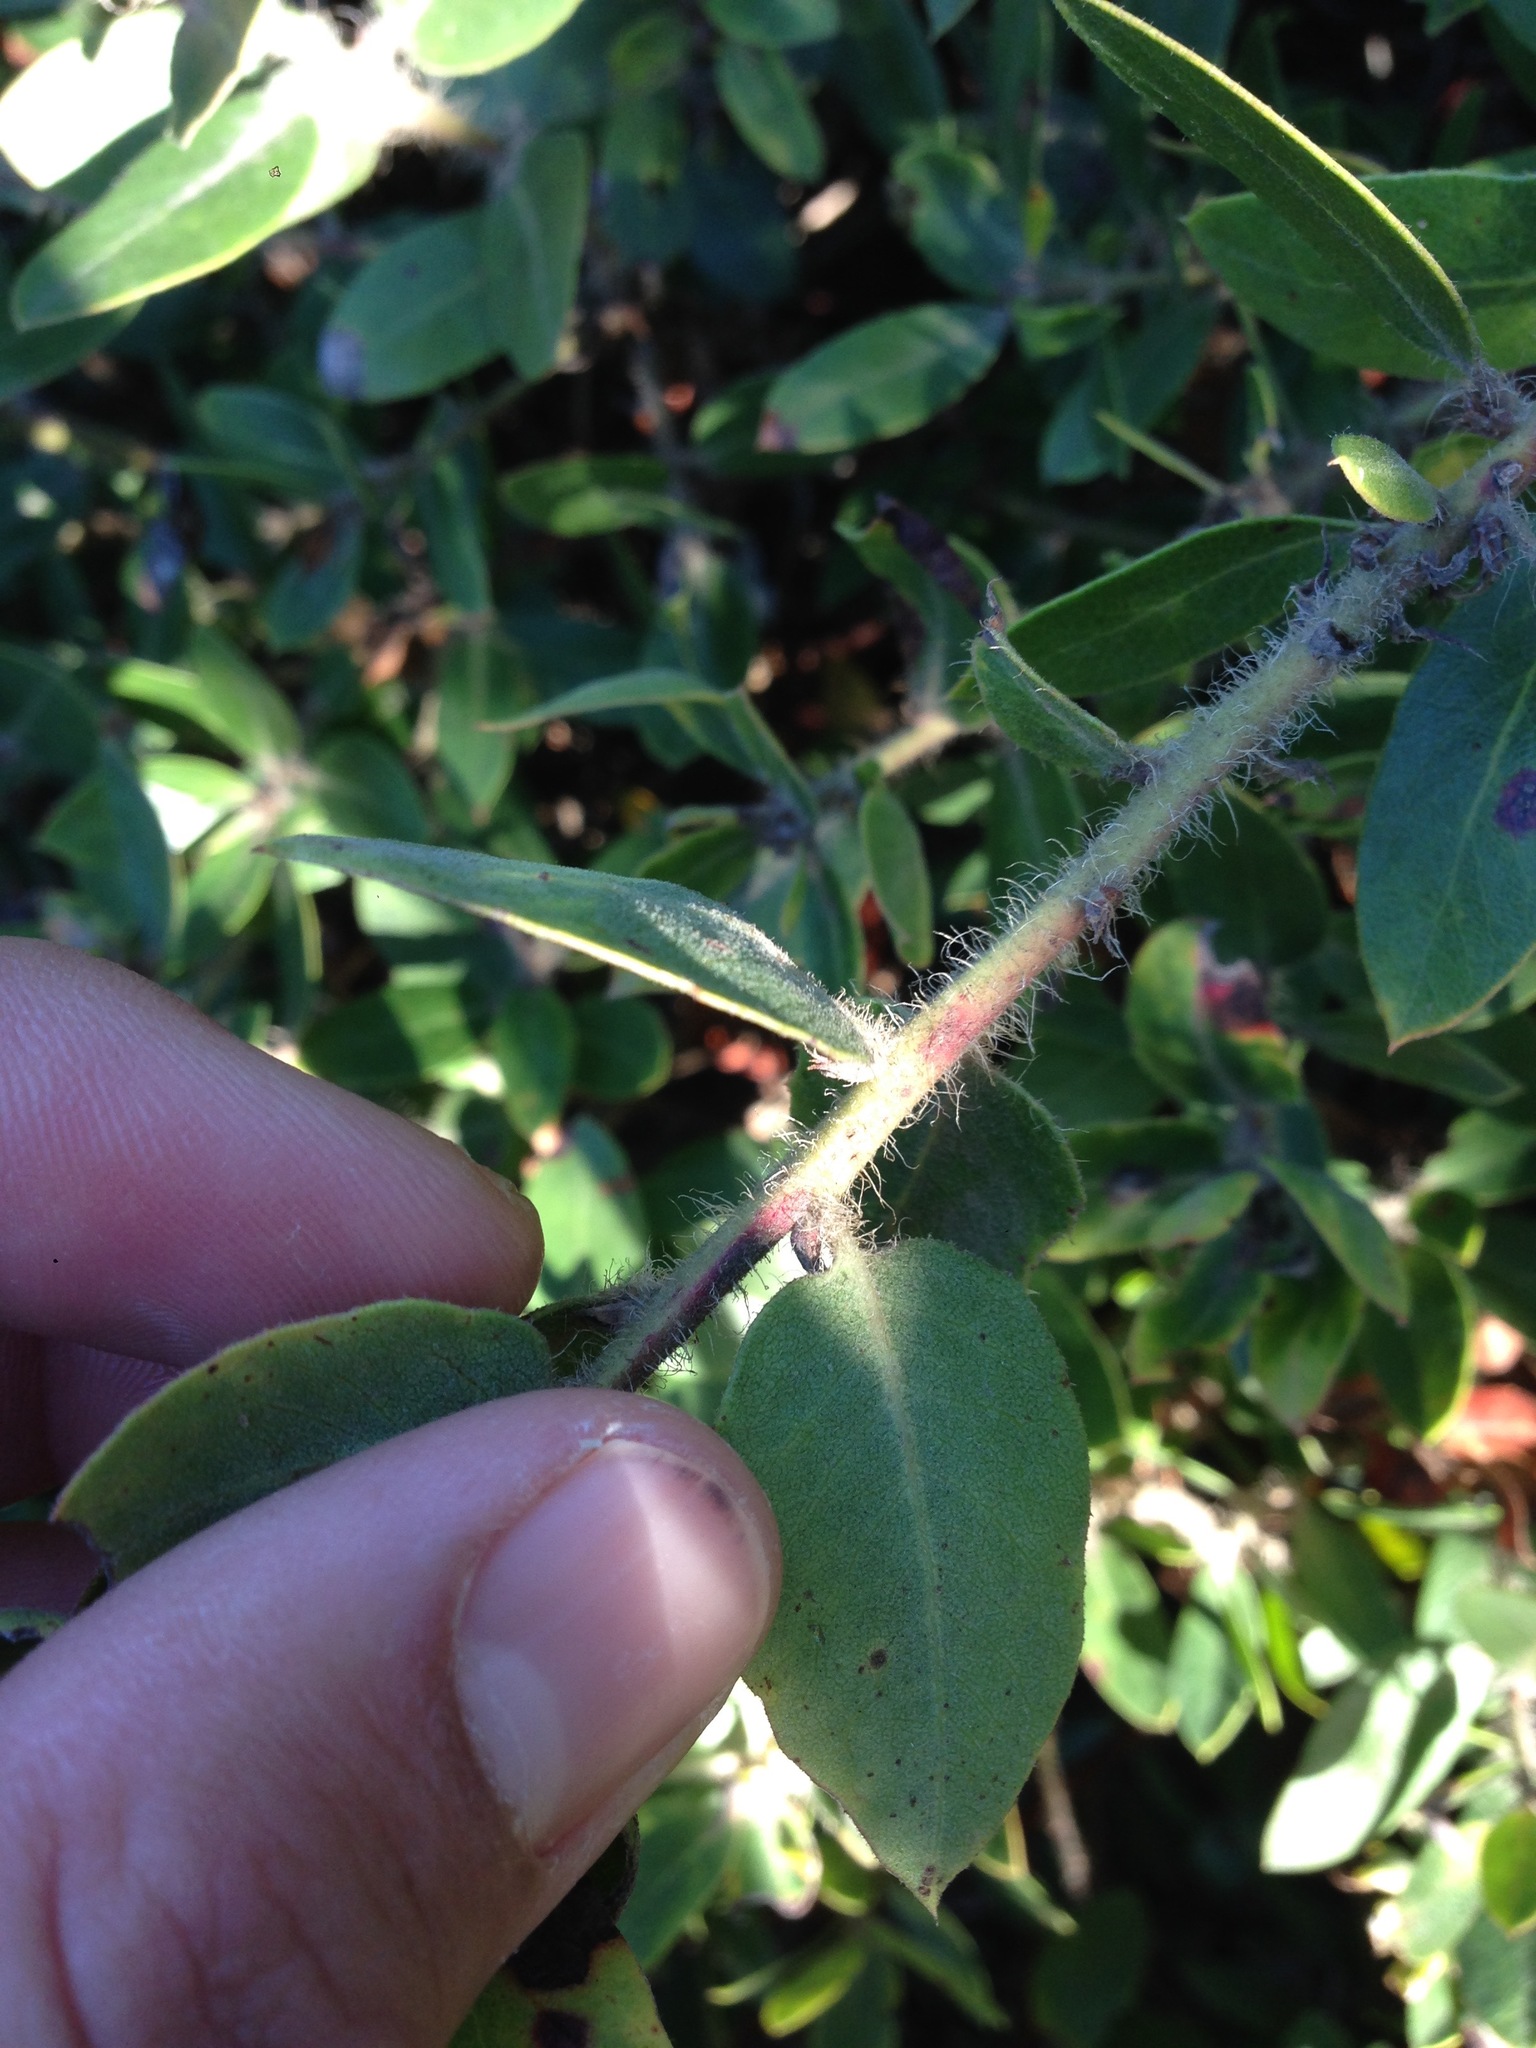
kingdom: Plantae
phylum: Tracheophyta
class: Magnoliopsida
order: Ericales
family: Ericaceae
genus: Arctostaphylos
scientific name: Arctostaphylos crustacea
